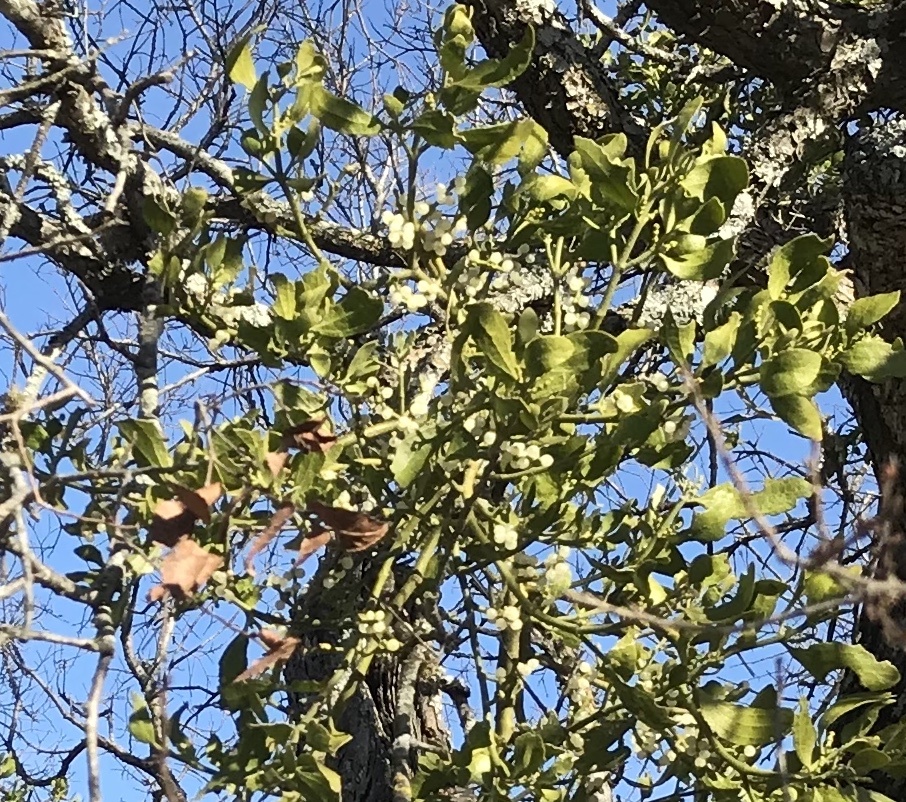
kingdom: Plantae
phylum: Tracheophyta
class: Magnoliopsida
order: Santalales
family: Viscaceae
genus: Phoradendron
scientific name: Phoradendron leucarpum
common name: Pacific mistletoe
